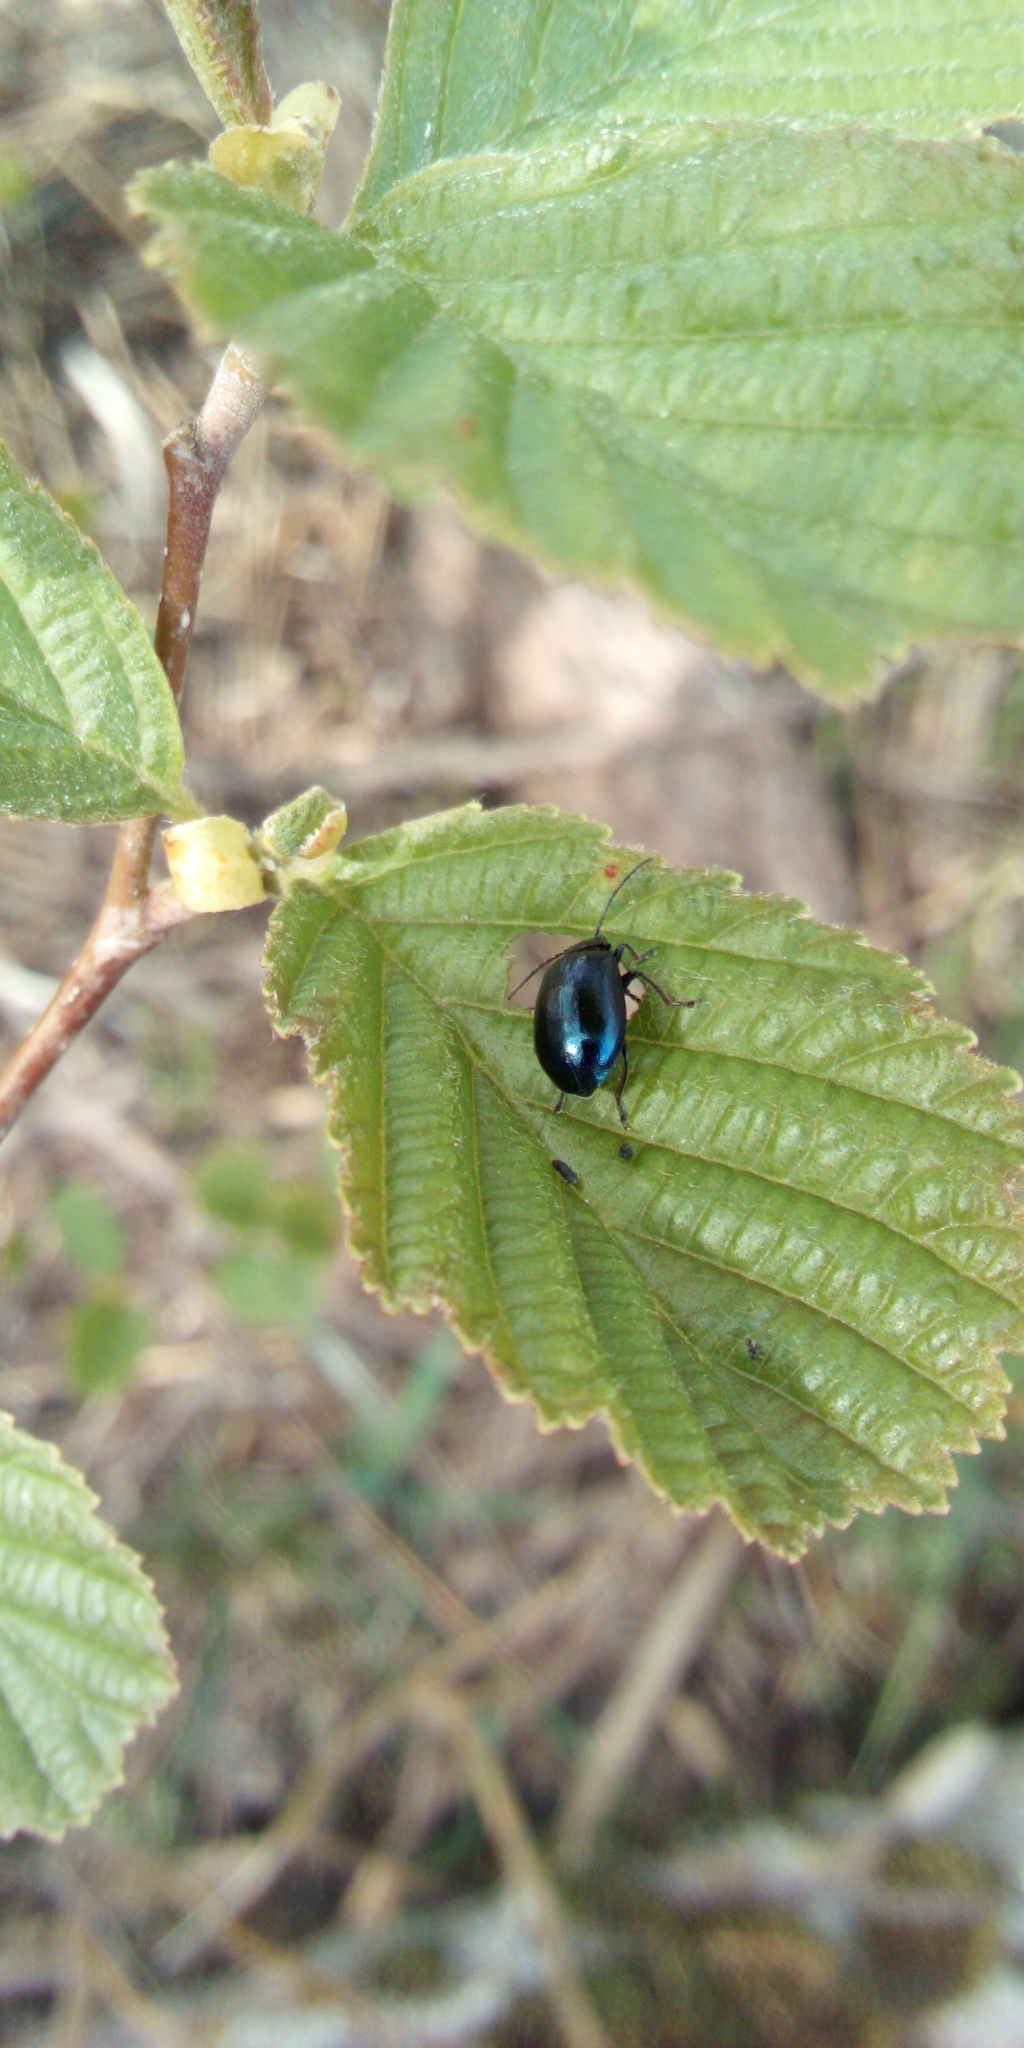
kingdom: Animalia
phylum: Arthropoda
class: Insecta
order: Coleoptera
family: Chrysomelidae
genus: Agelastica
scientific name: Agelastica alni
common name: Alder leaf beetle
